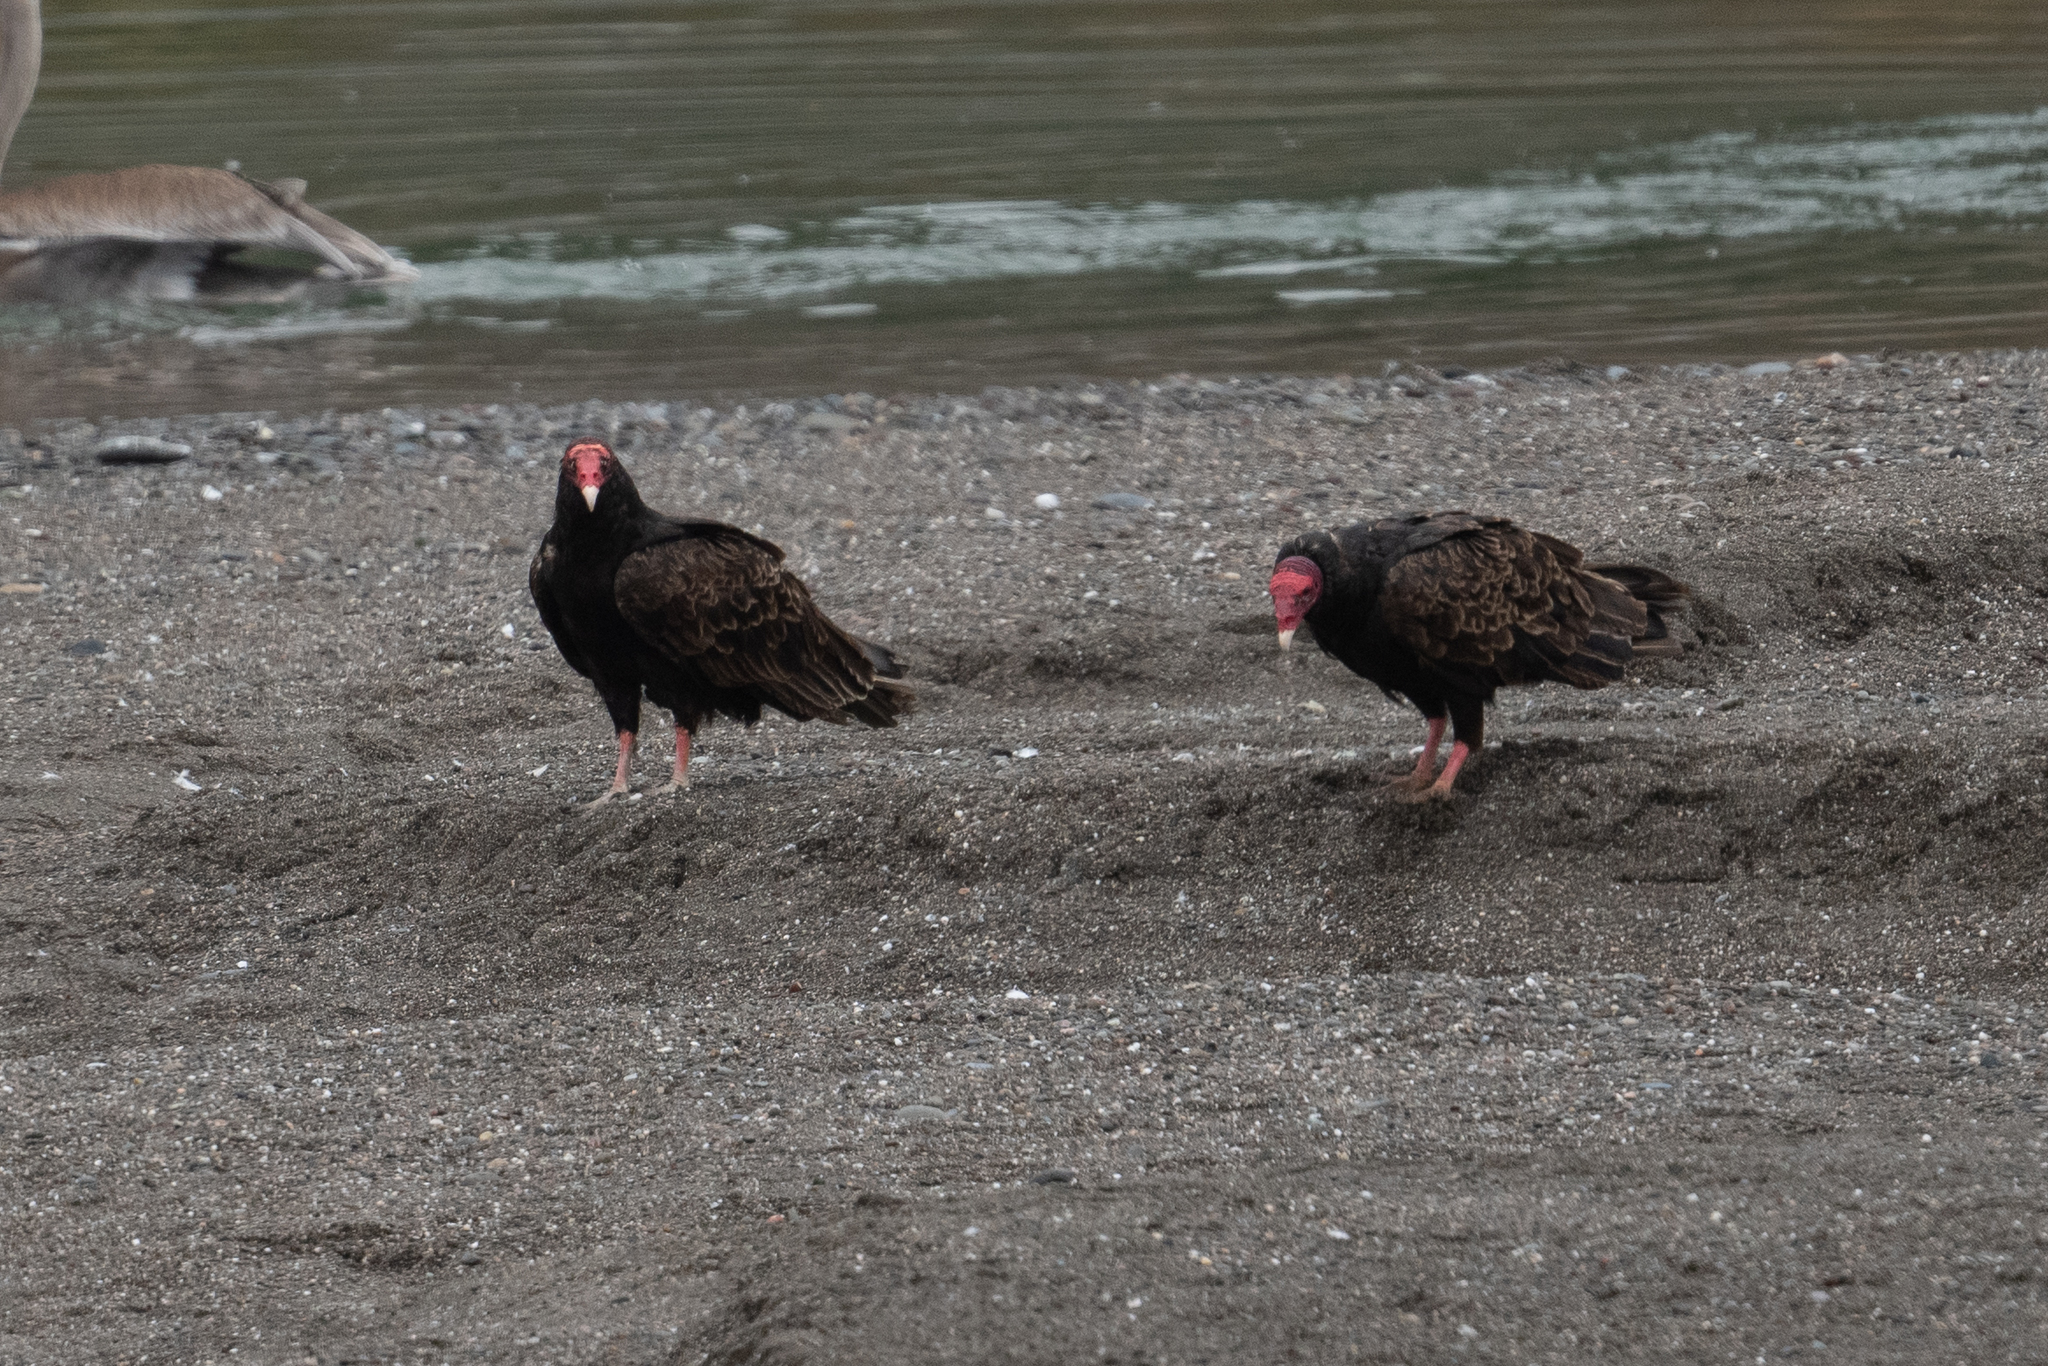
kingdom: Animalia
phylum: Chordata
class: Aves
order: Accipitriformes
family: Cathartidae
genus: Cathartes
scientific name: Cathartes aura
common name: Turkey vulture
